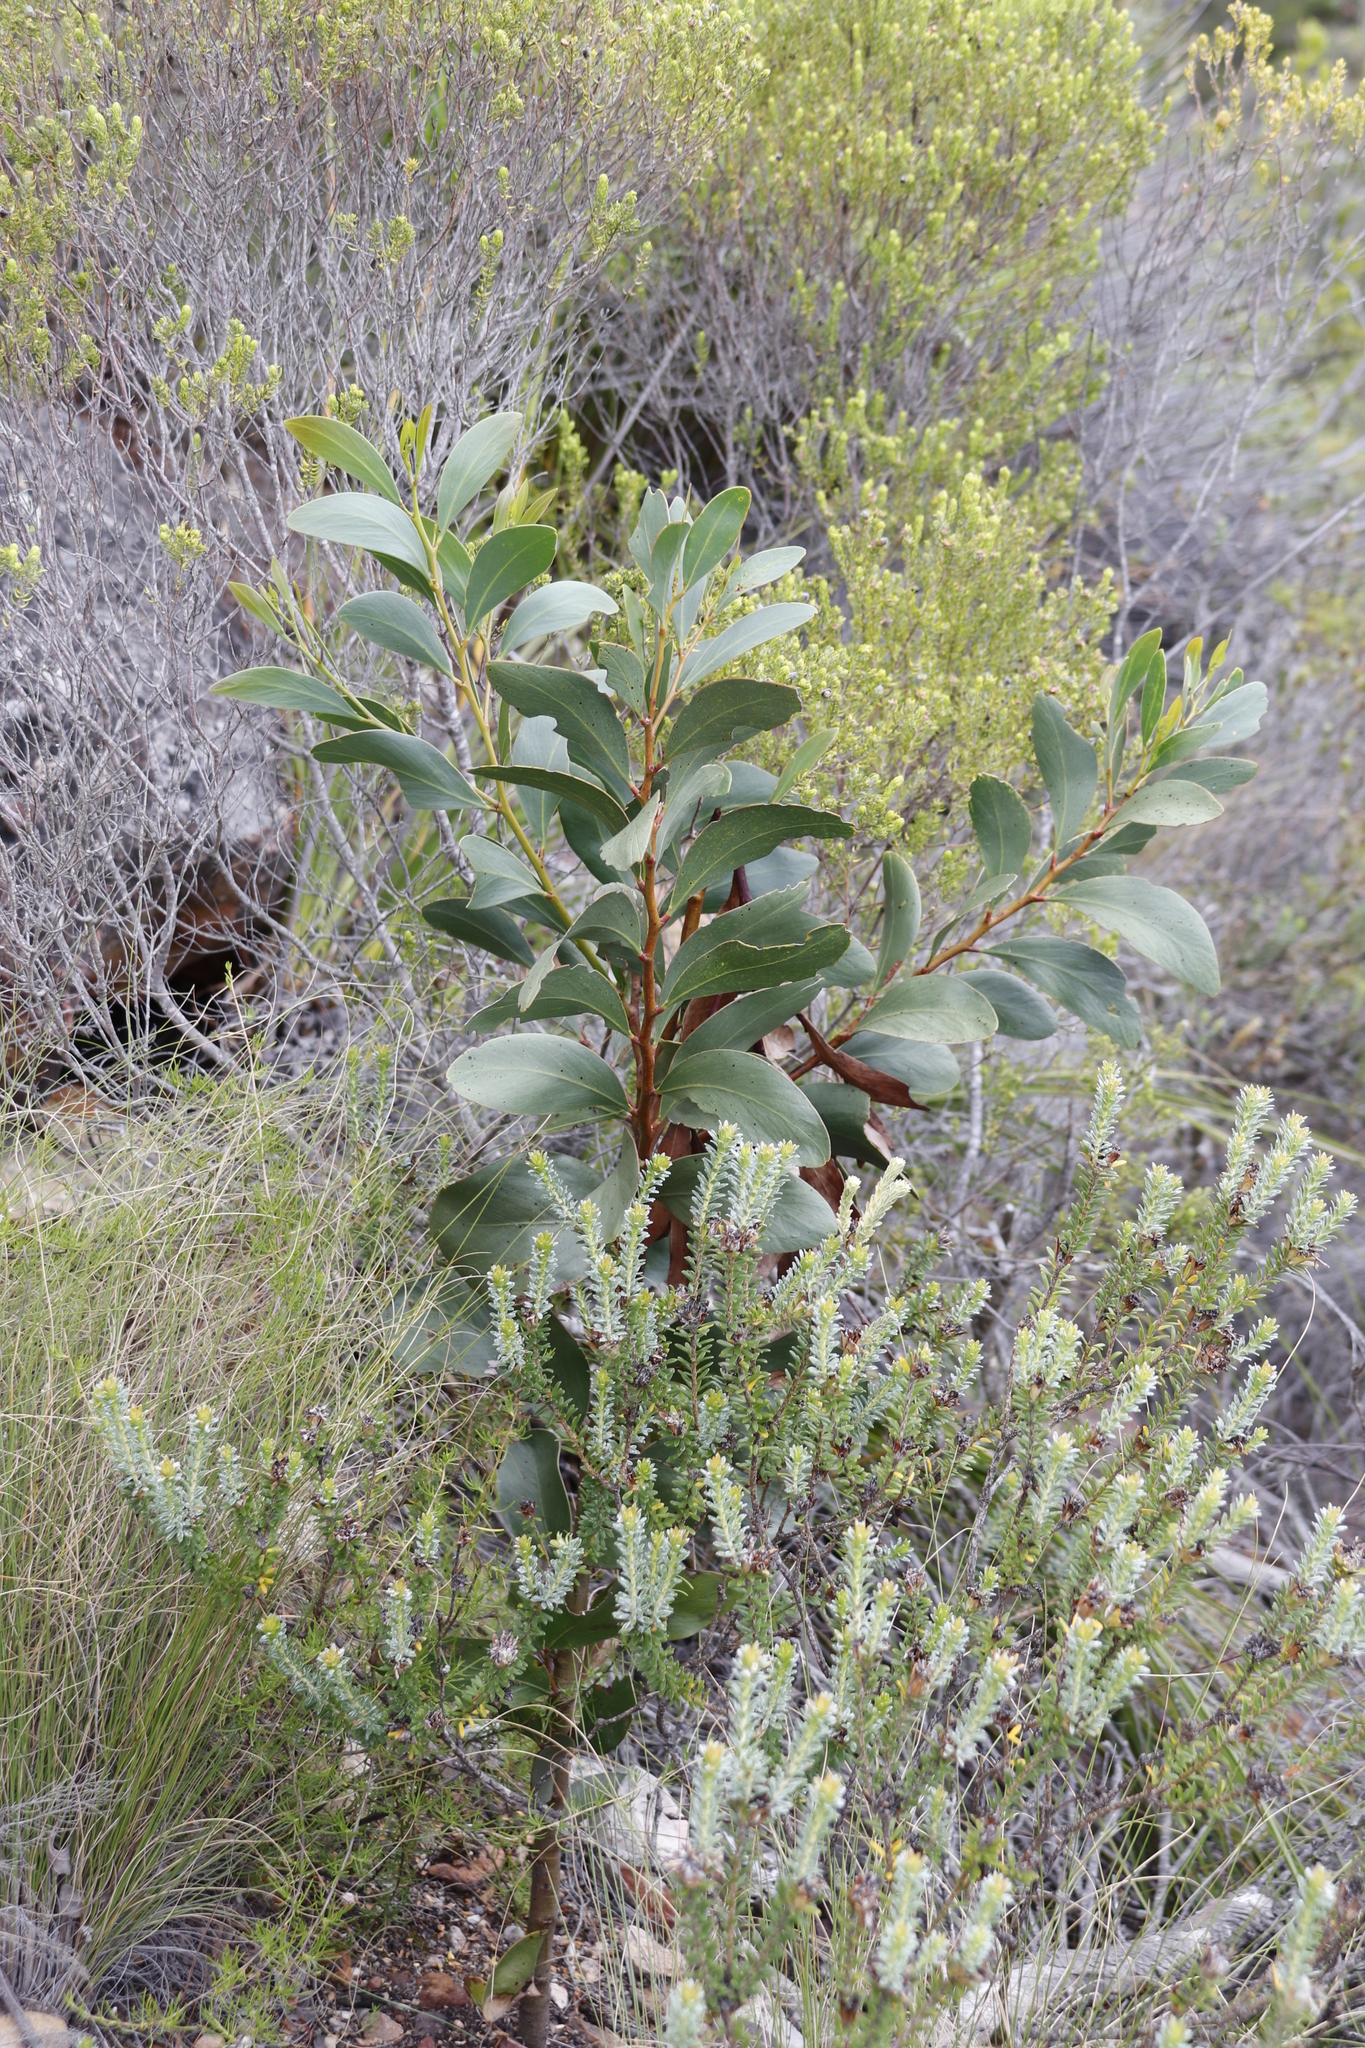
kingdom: Plantae
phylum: Tracheophyta
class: Magnoliopsida
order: Fabales
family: Fabaceae
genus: Acacia
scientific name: Acacia pycnantha
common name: Golden wattle
